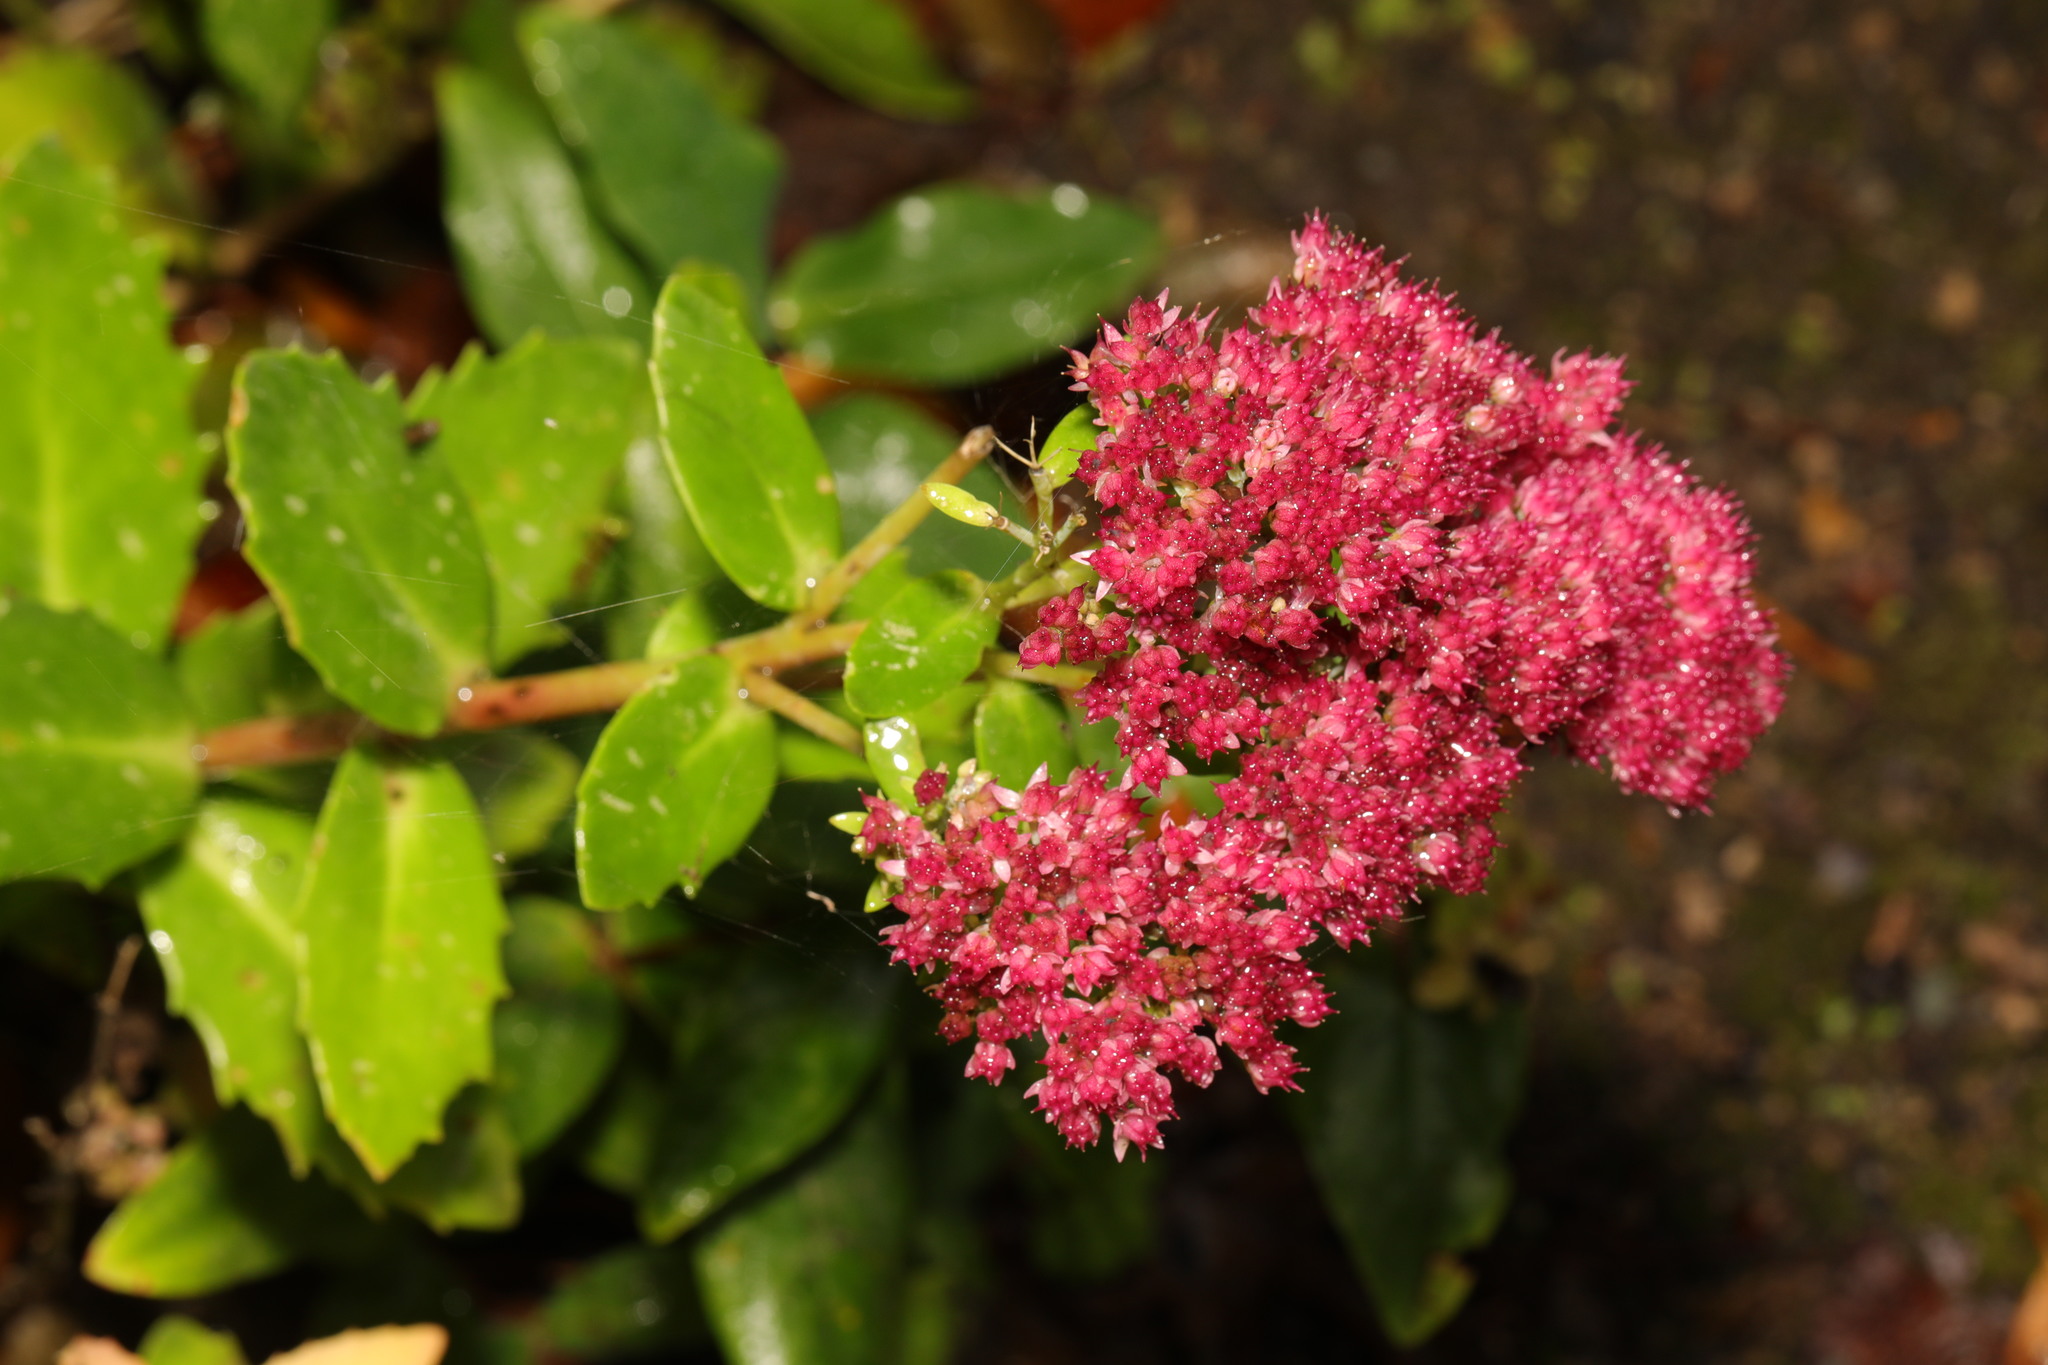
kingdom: Plantae
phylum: Tracheophyta
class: Magnoliopsida
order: Saxifragales
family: Crassulaceae
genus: Hylotelephium
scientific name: Hylotelephium telephium
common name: Live-forever
